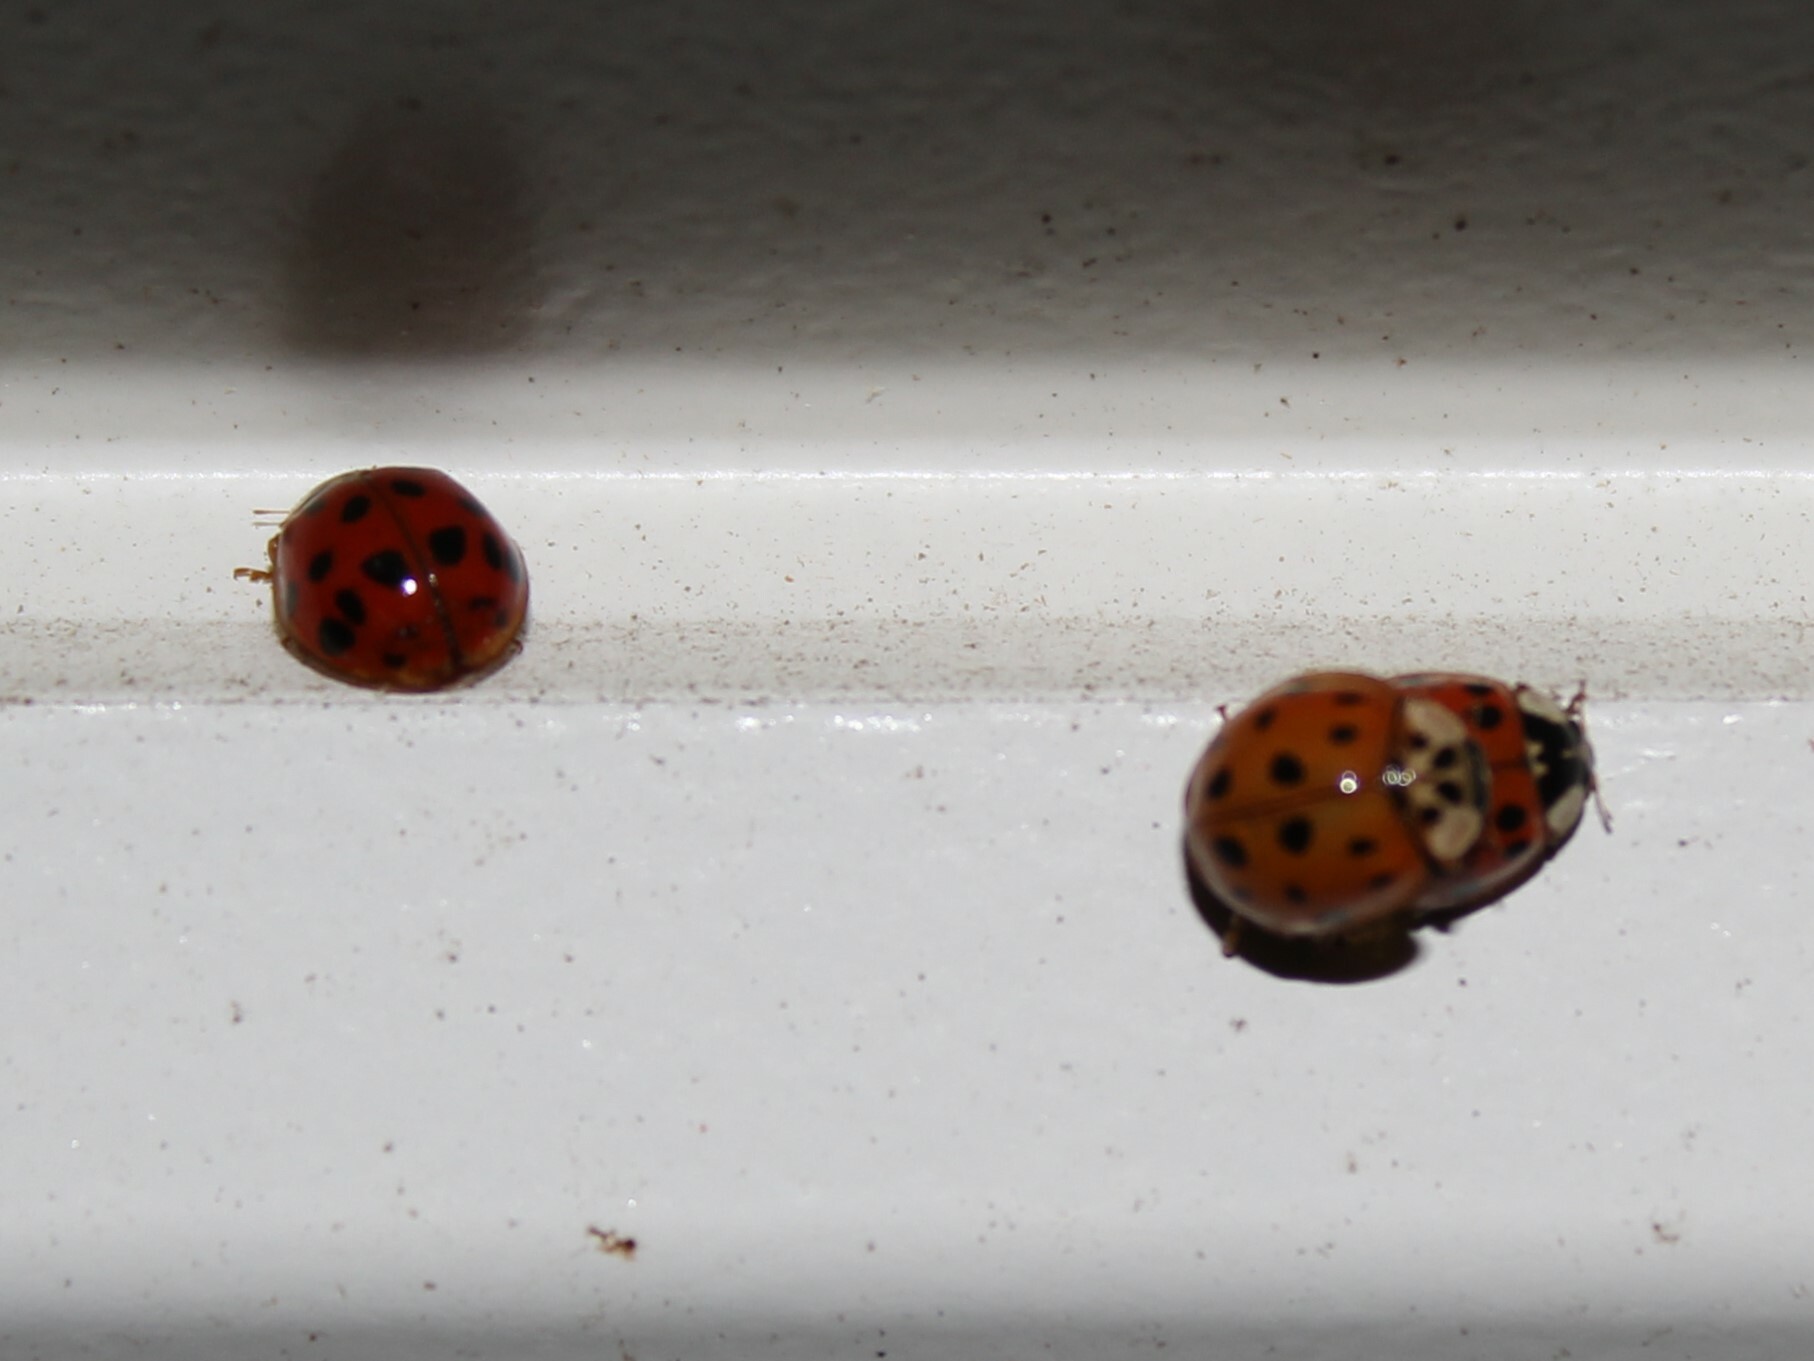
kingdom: Animalia
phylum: Arthropoda
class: Insecta
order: Coleoptera
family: Coccinellidae
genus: Harmonia
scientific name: Harmonia axyridis
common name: Harlequin ladybird
